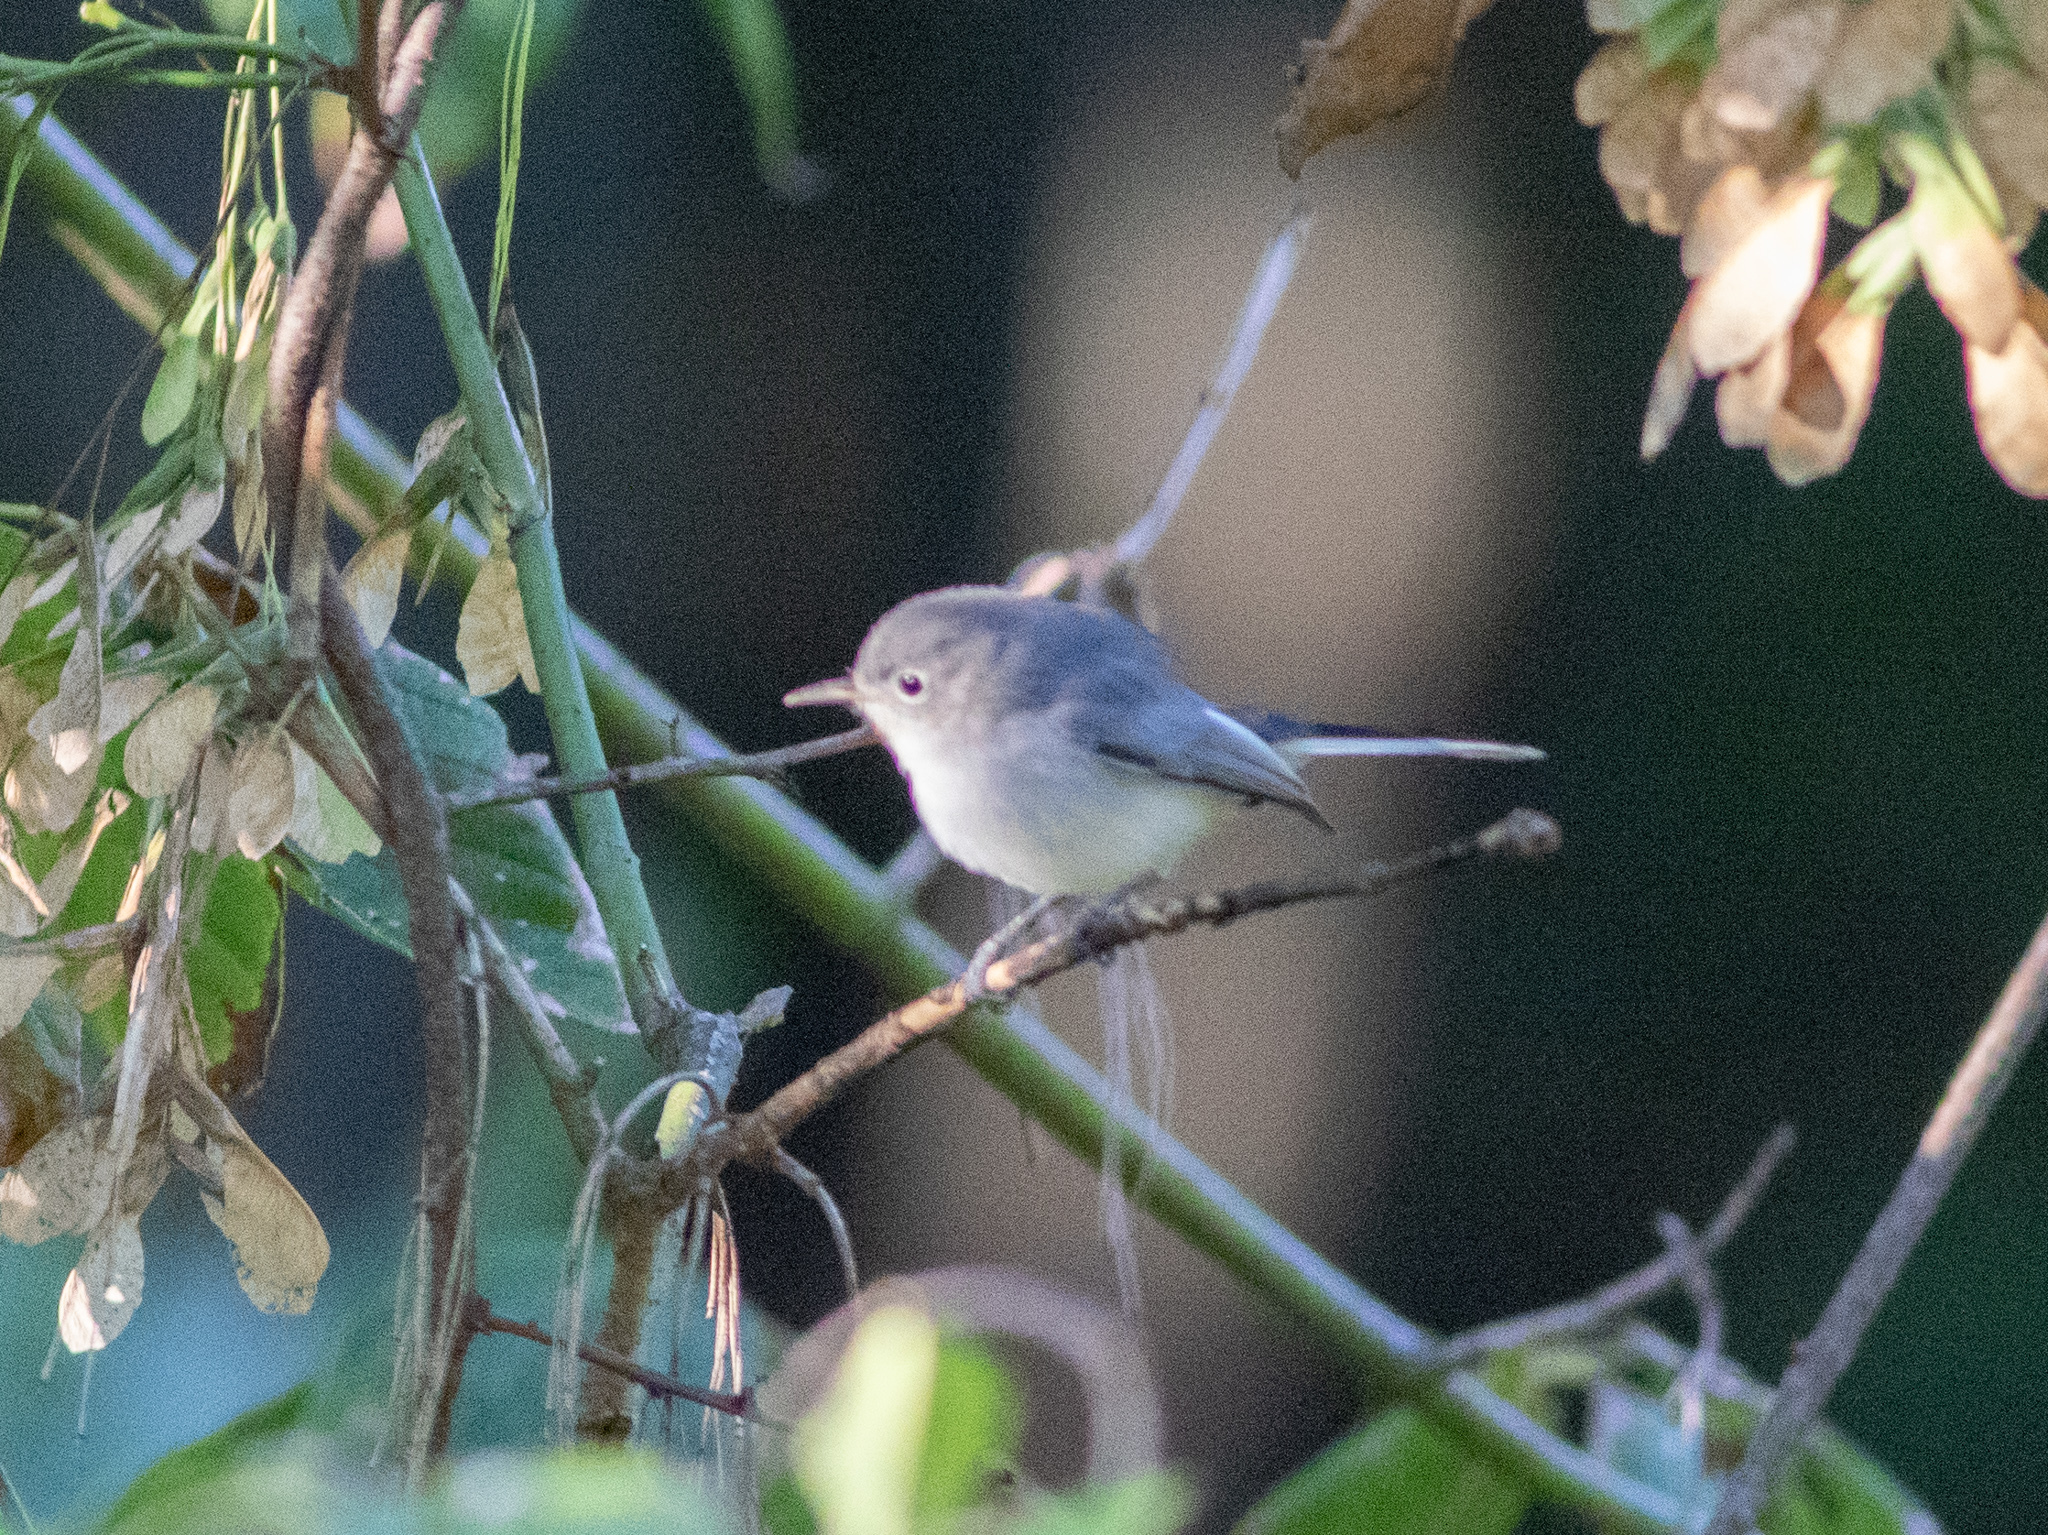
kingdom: Animalia
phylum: Chordata
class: Aves
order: Passeriformes
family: Polioptilidae
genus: Polioptila
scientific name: Polioptila caerulea
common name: Blue-gray gnatcatcher
